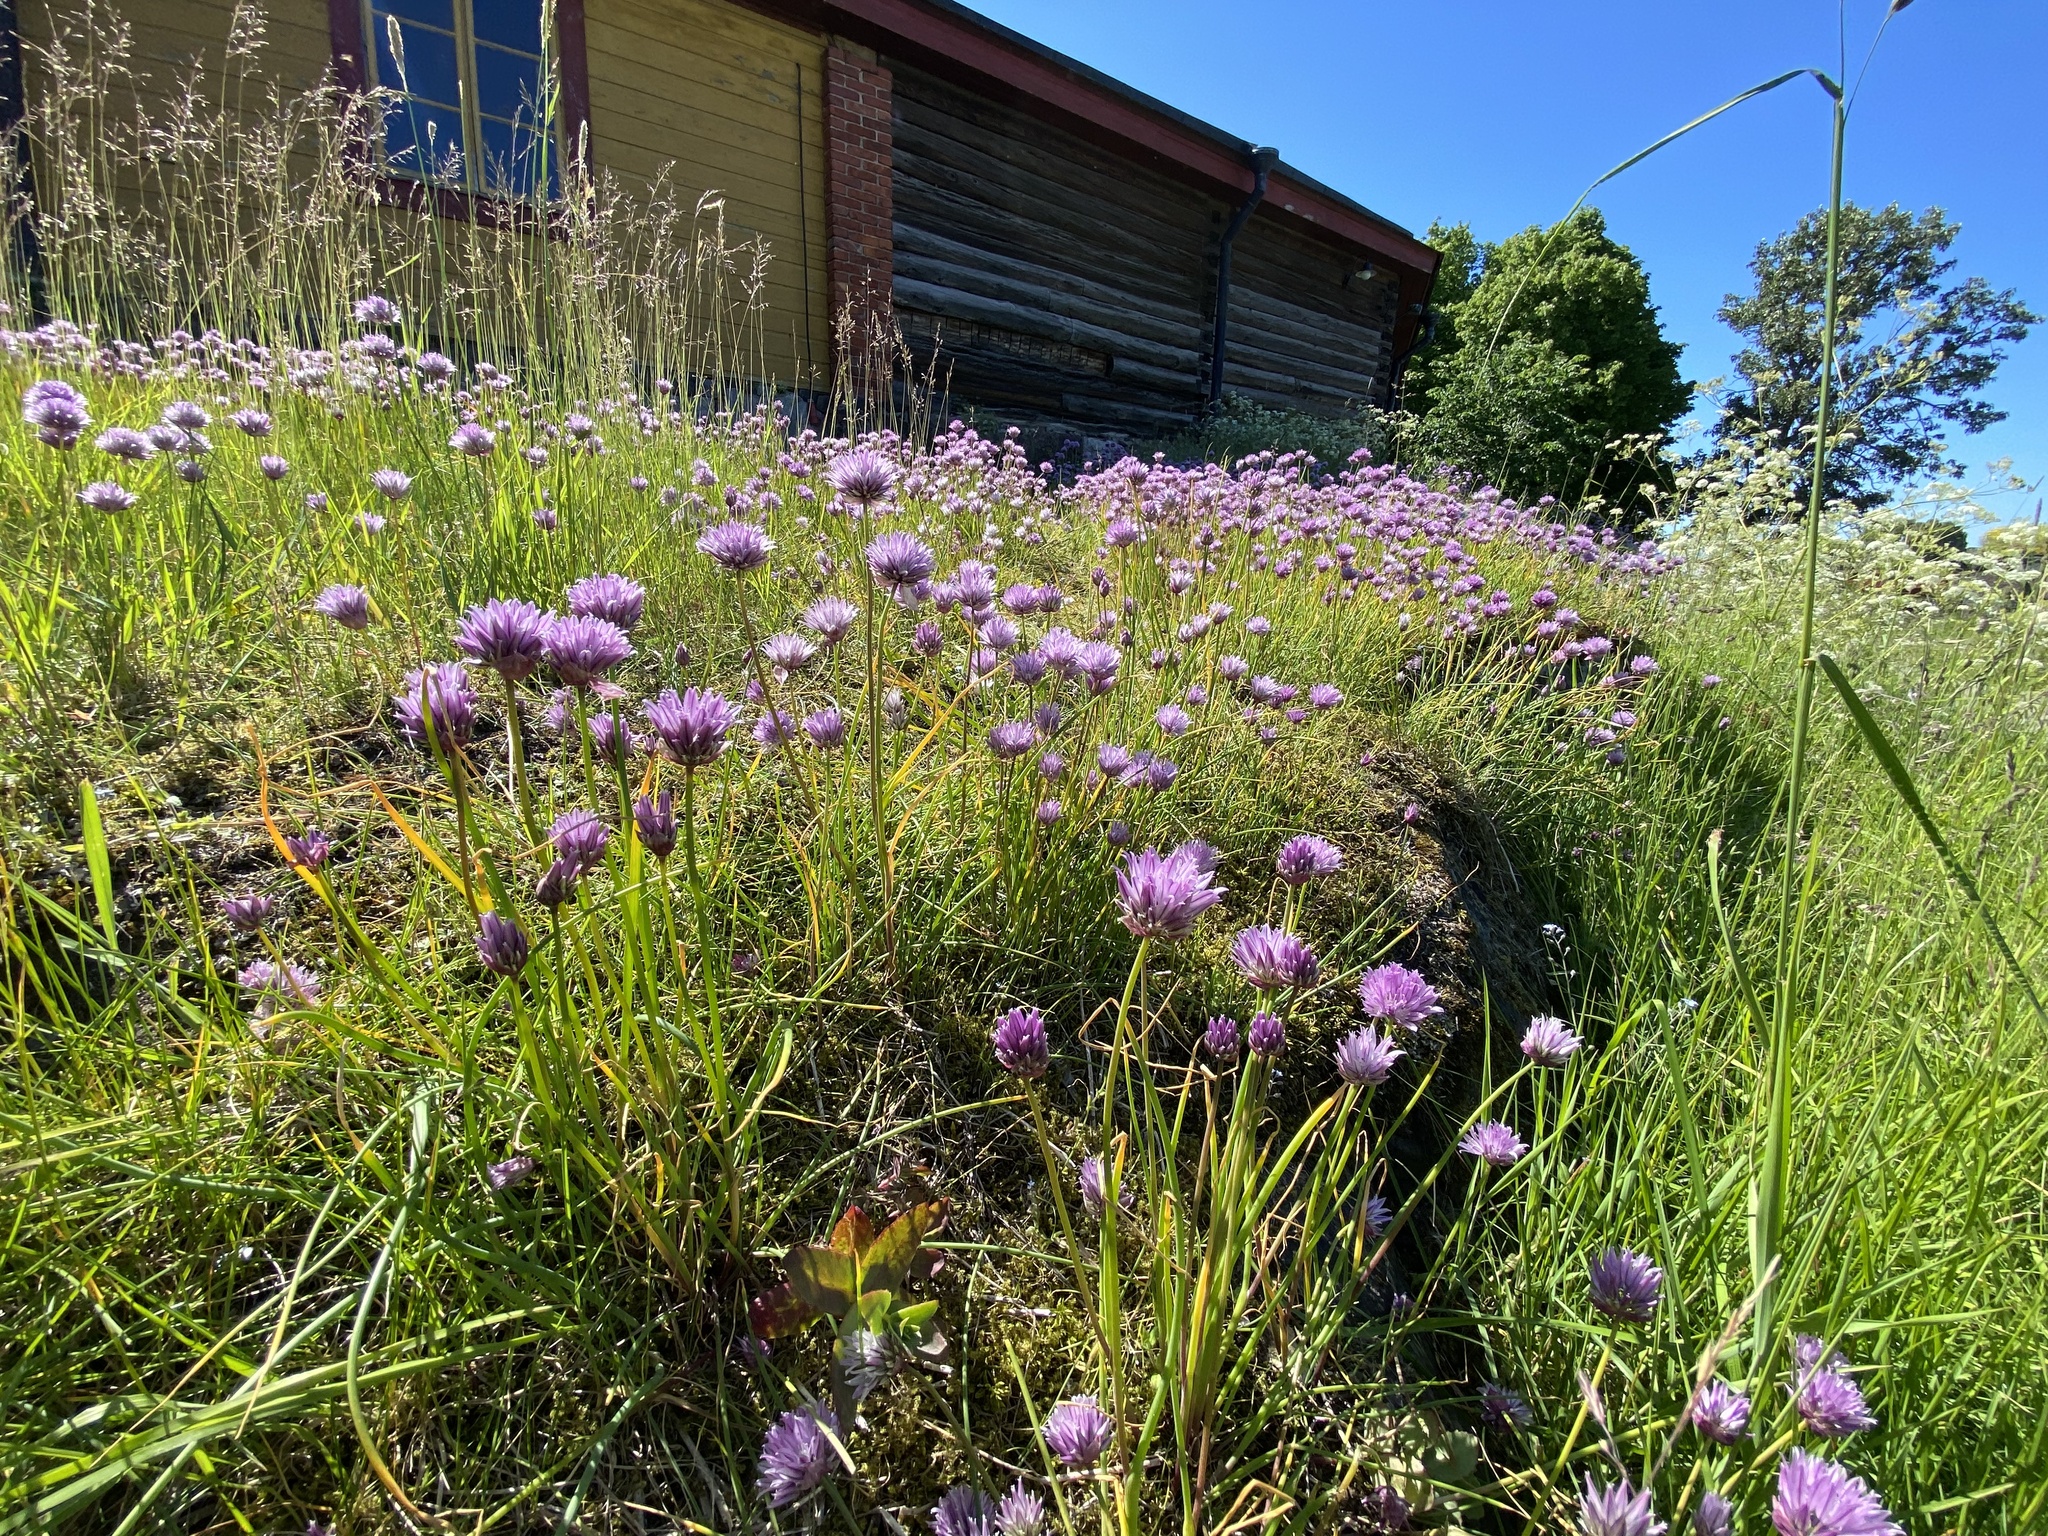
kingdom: Plantae
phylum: Tracheophyta
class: Liliopsida
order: Asparagales
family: Amaryllidaceae
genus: Allium
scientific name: Allium schoenoprasum
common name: Chives
